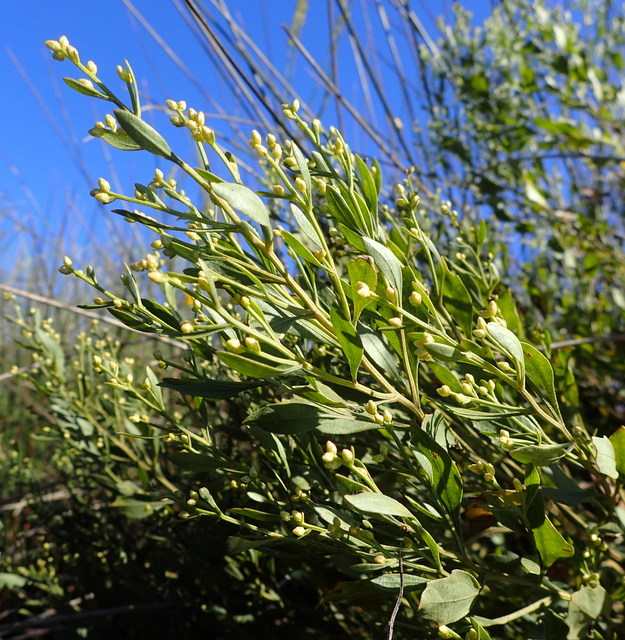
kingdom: Plantae
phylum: Tracheophyta
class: Magnoliopsida
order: Asterales
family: Asteraceae
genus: Baccharis
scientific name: Baccharis halimifolia
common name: Eastern baccharis
